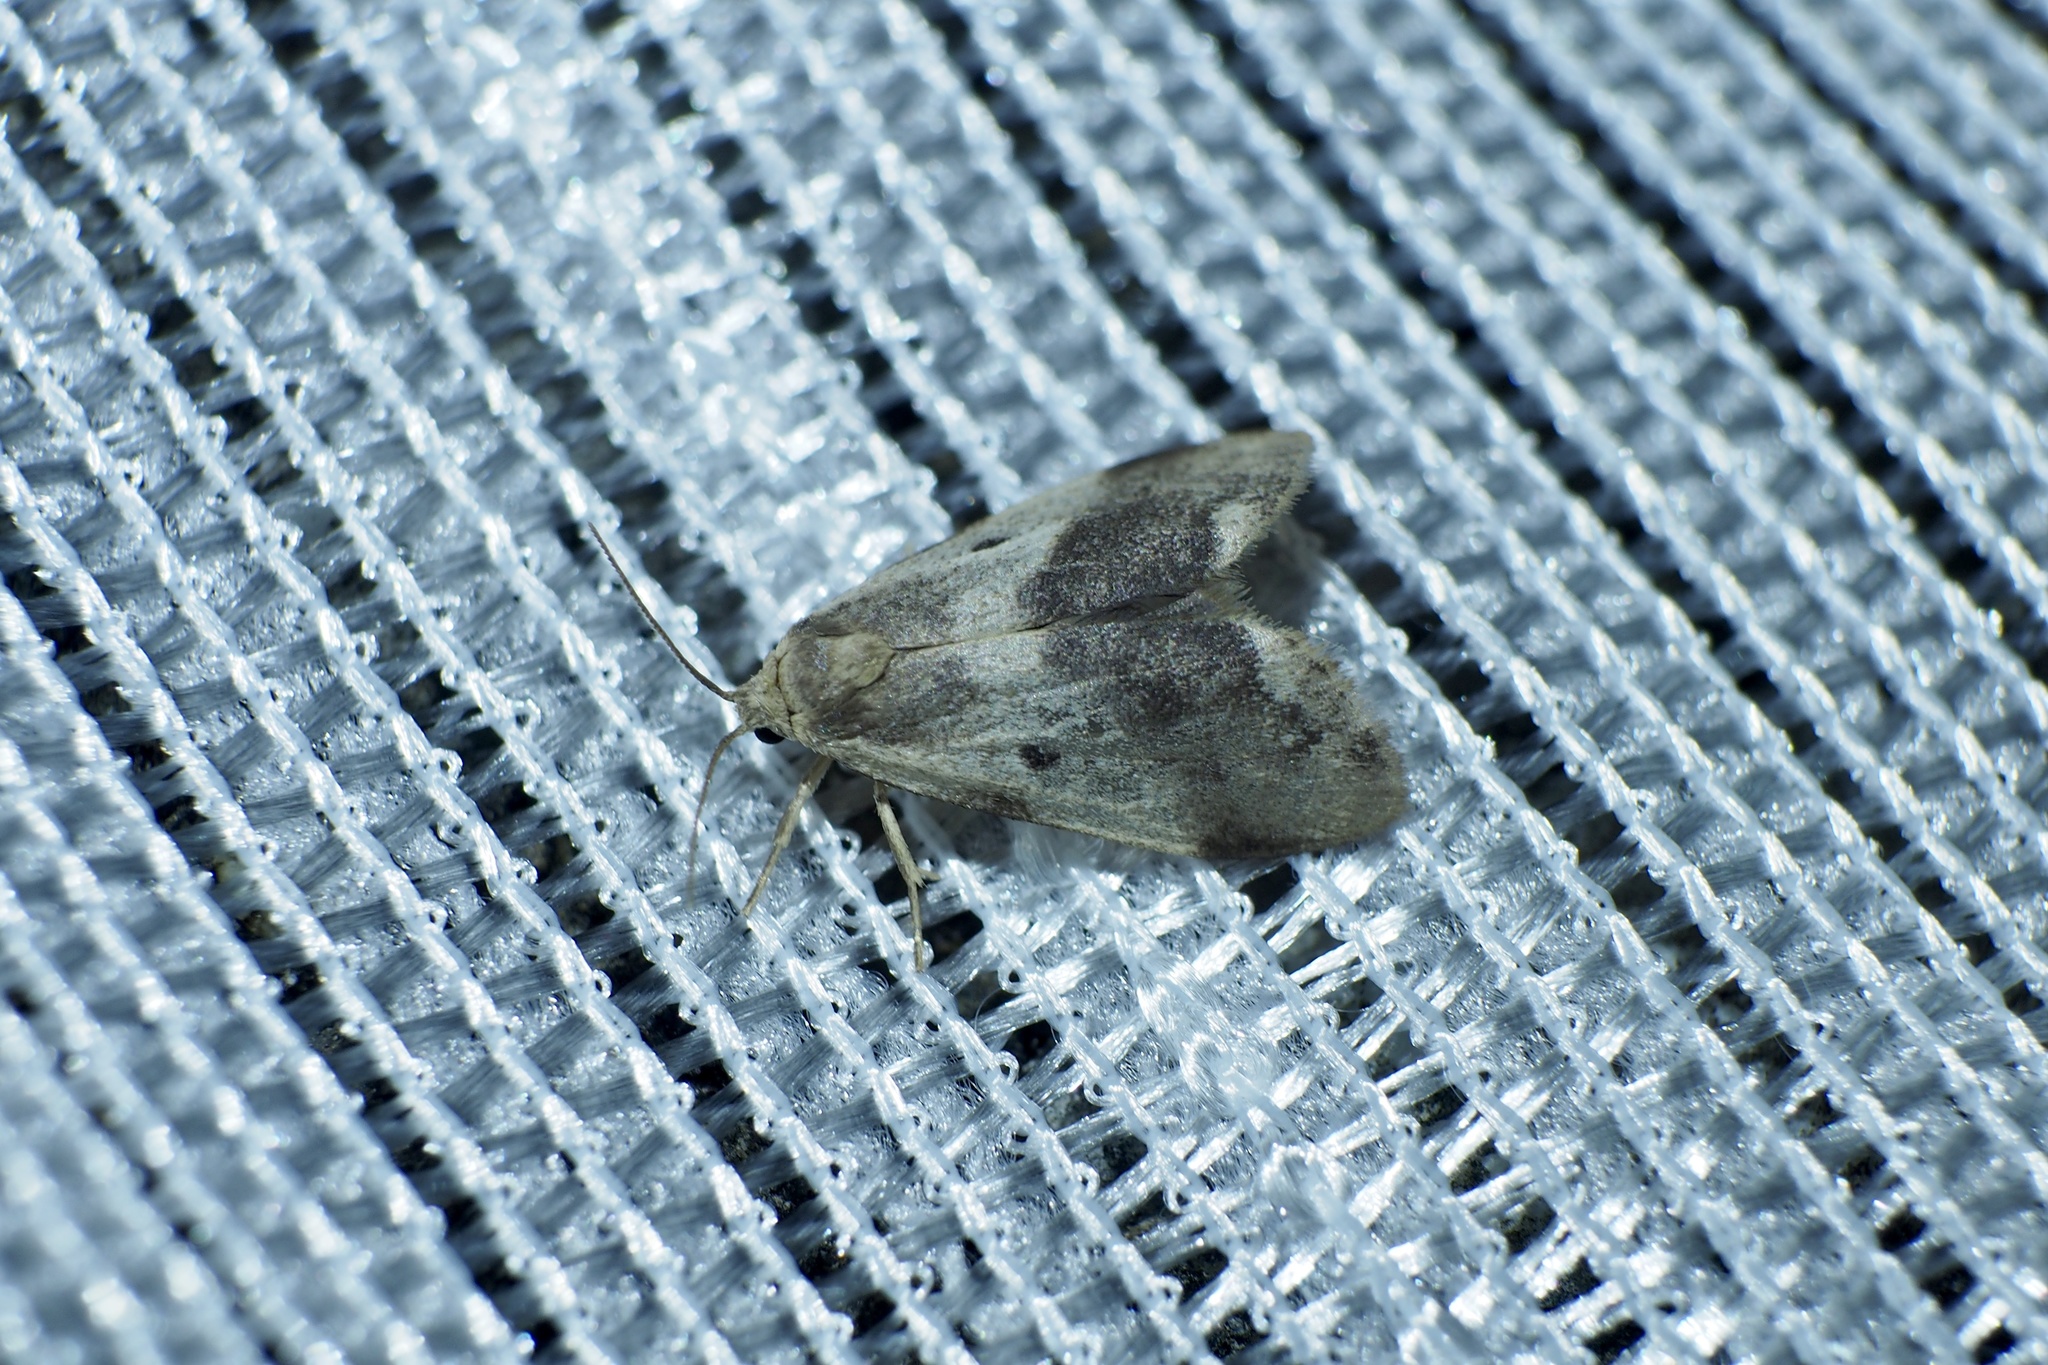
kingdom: Animalia
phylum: Arthropoda
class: Insecta
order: Lepidoptera
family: Erebidae
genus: Philenora
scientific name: Philenora latifasciata
